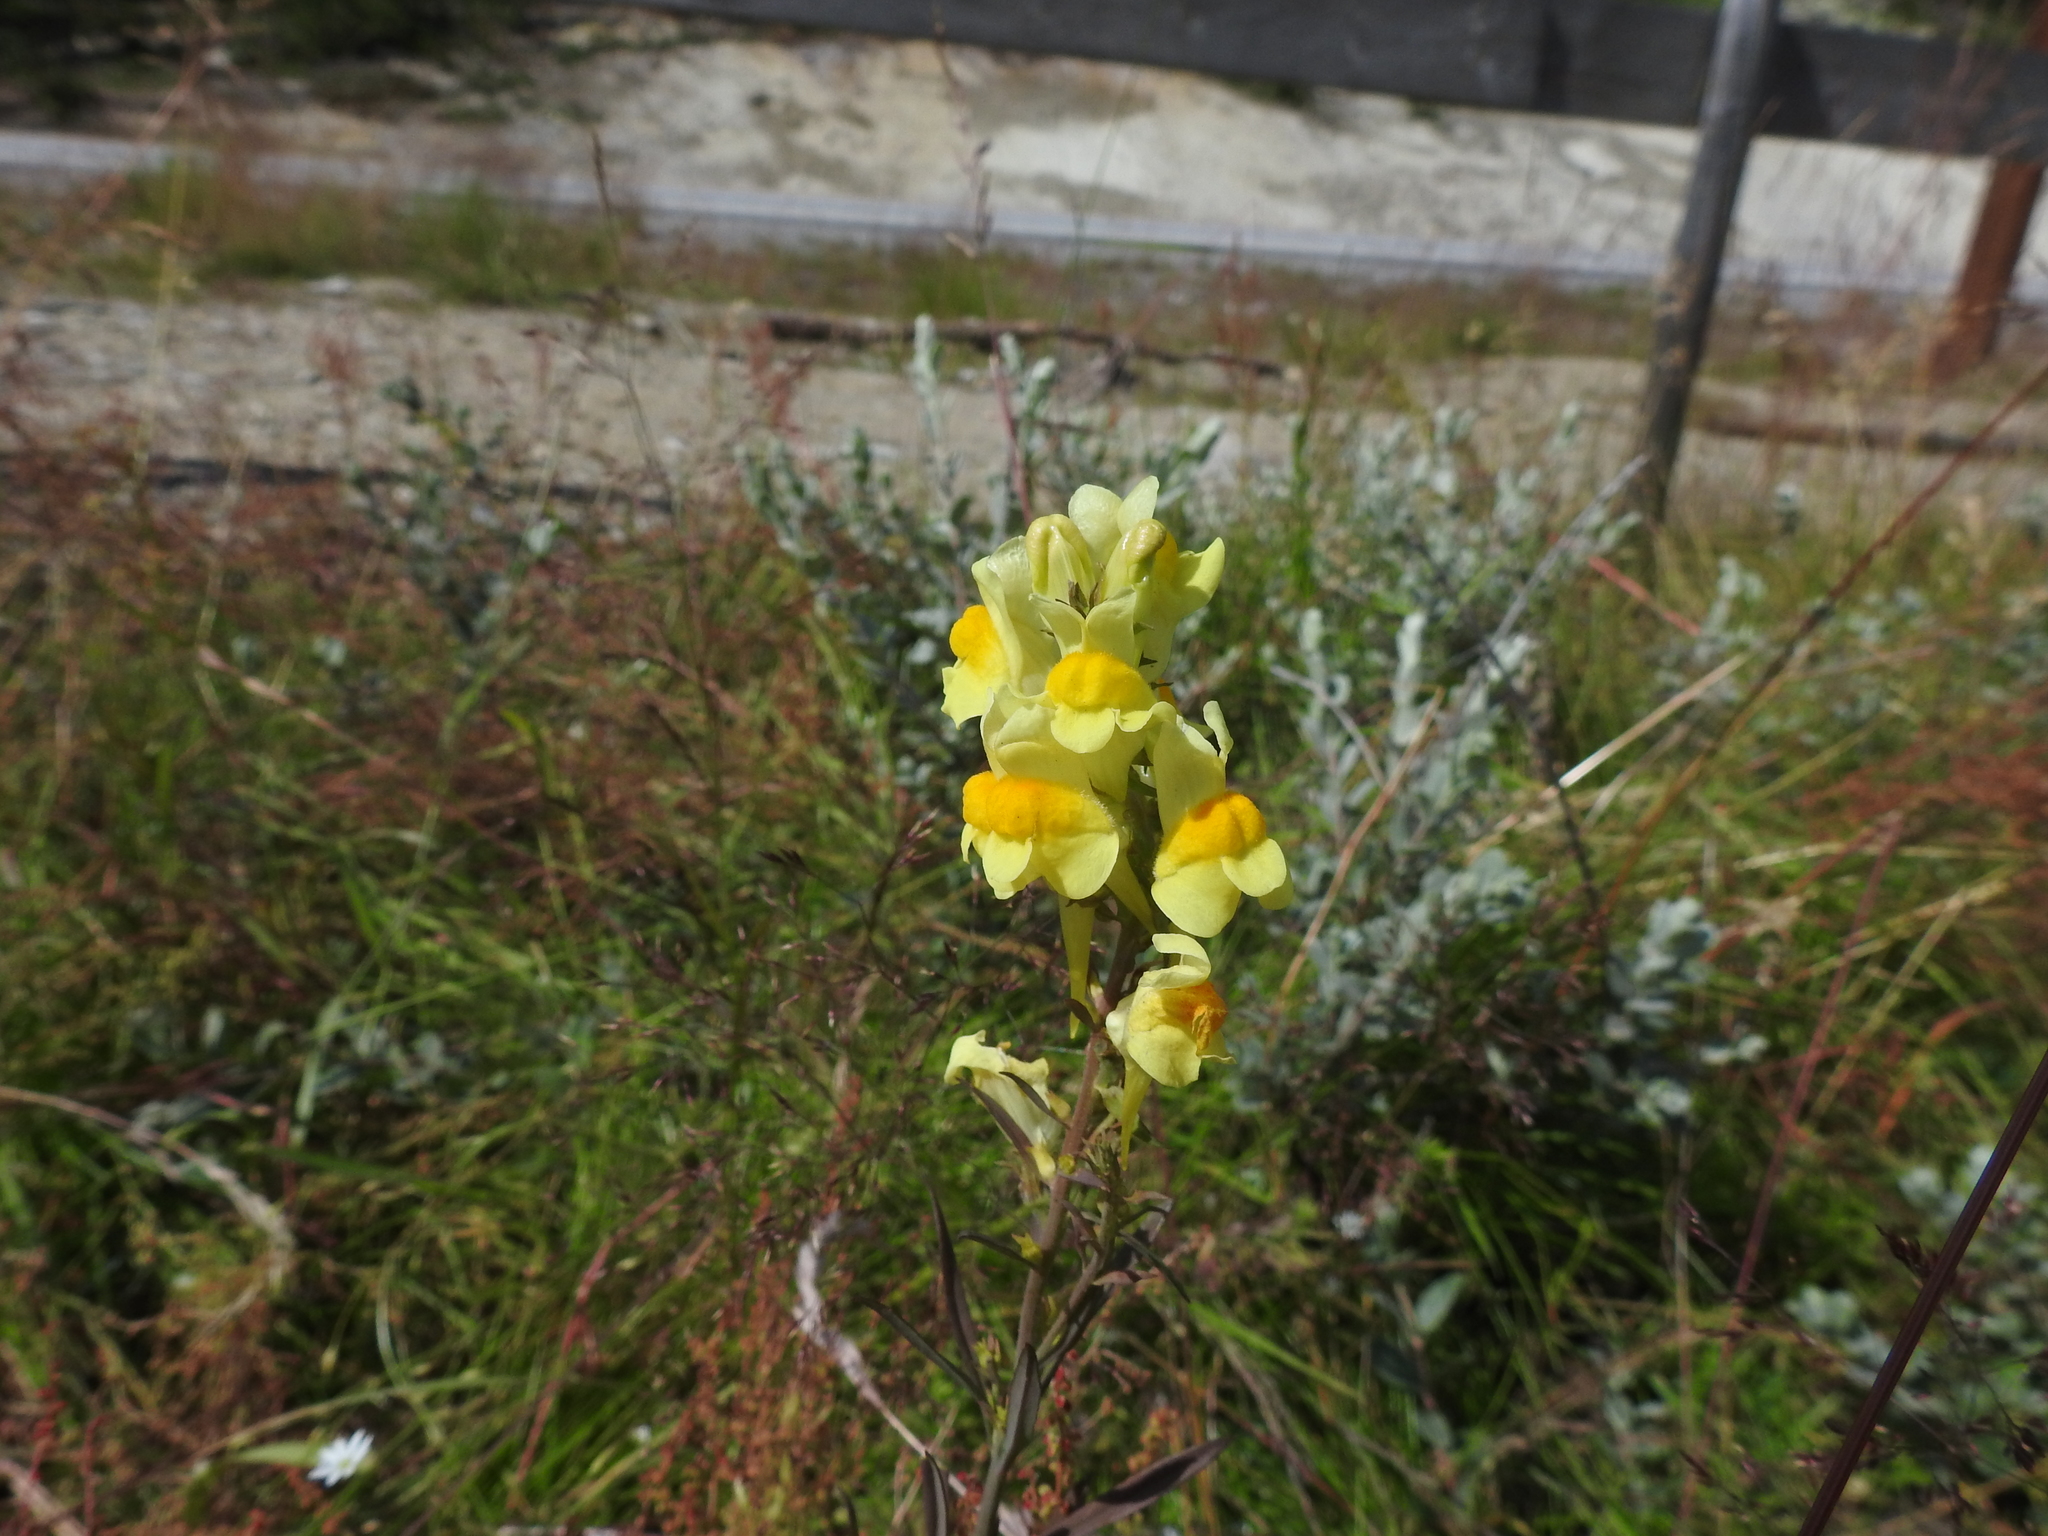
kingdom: Plantae
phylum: Tracheophyta
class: Magnoliopsida
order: Lamiales
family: Plantaginaceae
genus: Linaria
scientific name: Linaria vulgaris
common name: Butter and eggs
